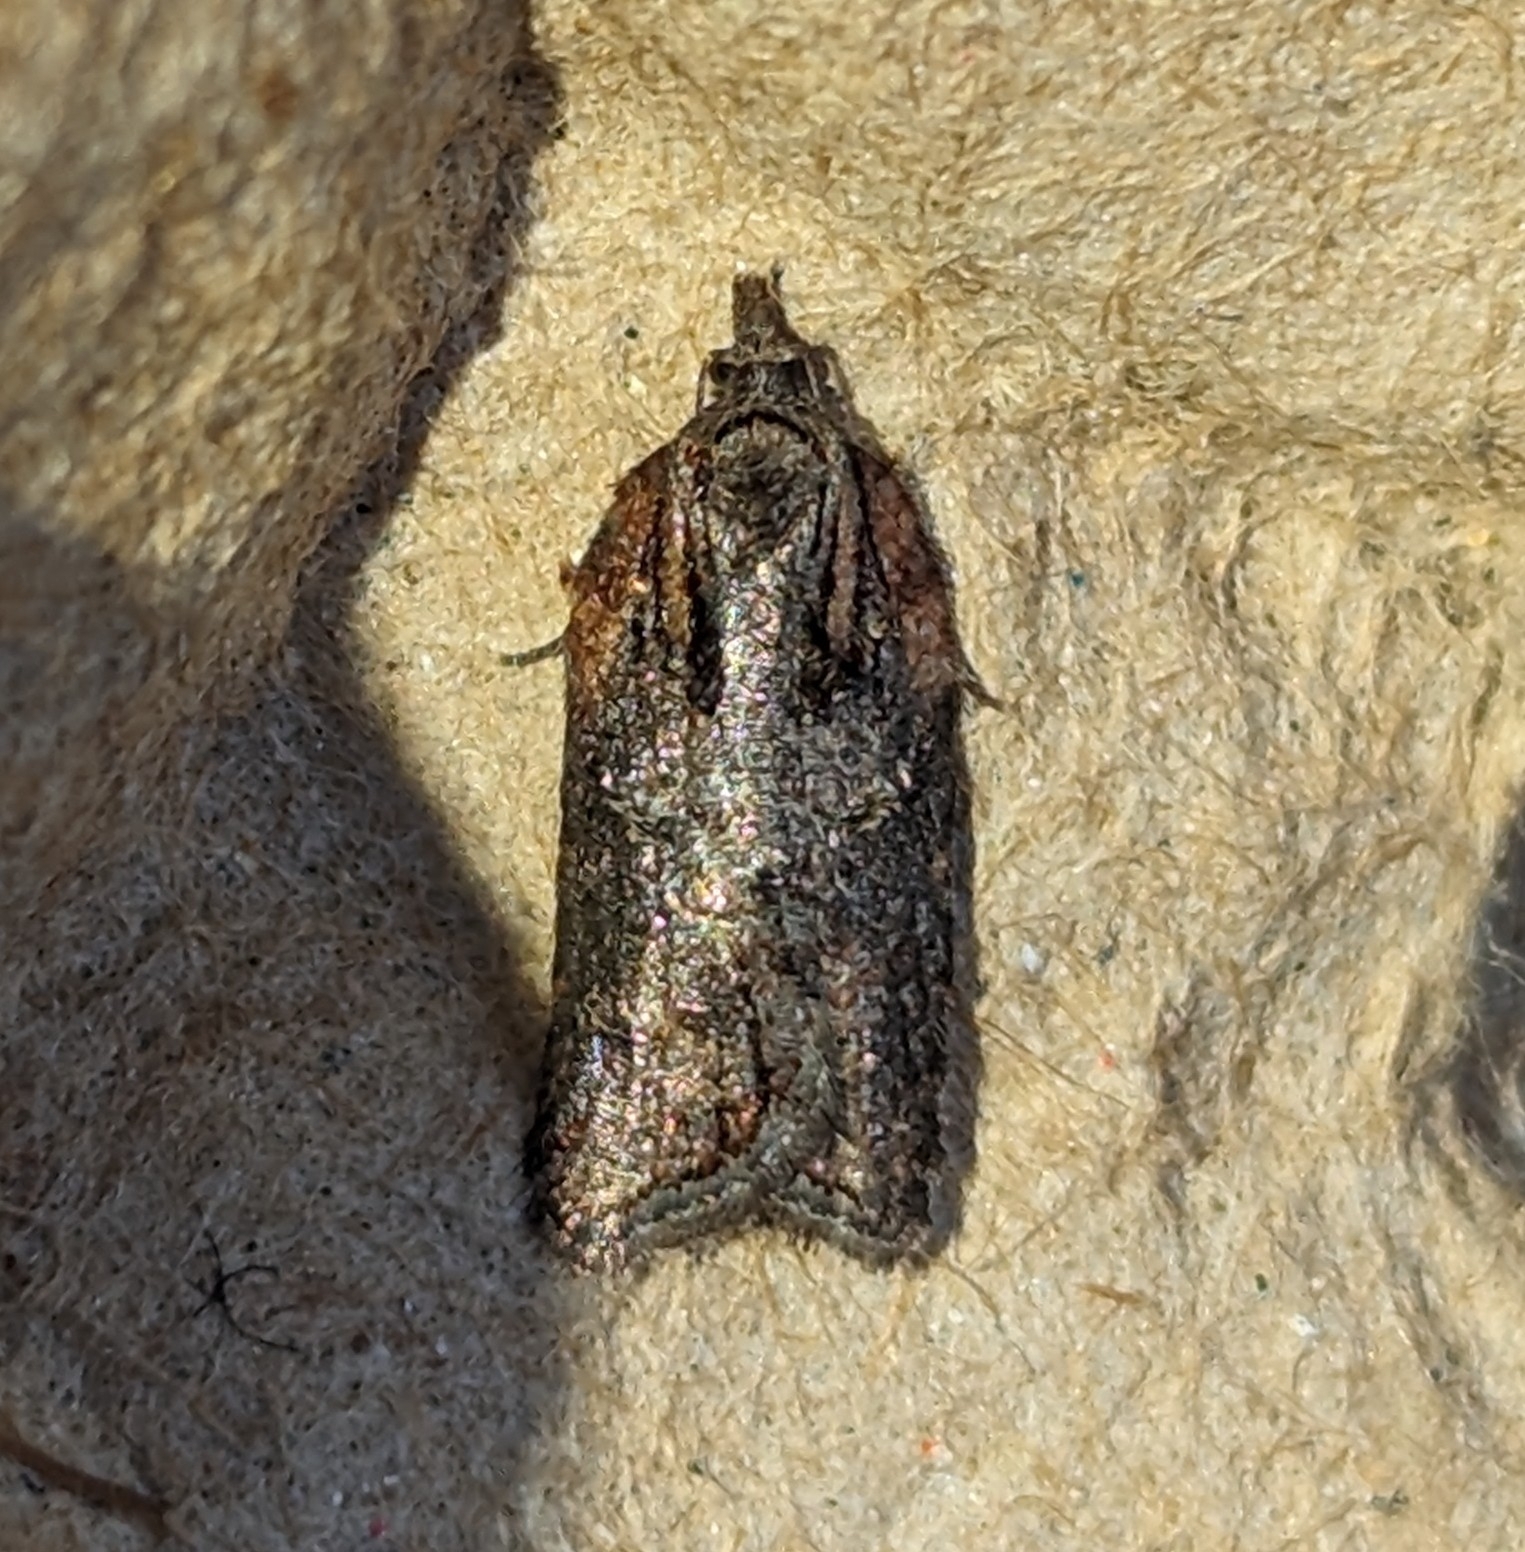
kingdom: Animalia
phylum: Arthropoda
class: Insecta
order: Lepidoptera
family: Tortricidae
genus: Acleris
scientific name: Acleris hastiana
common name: Sallow button
